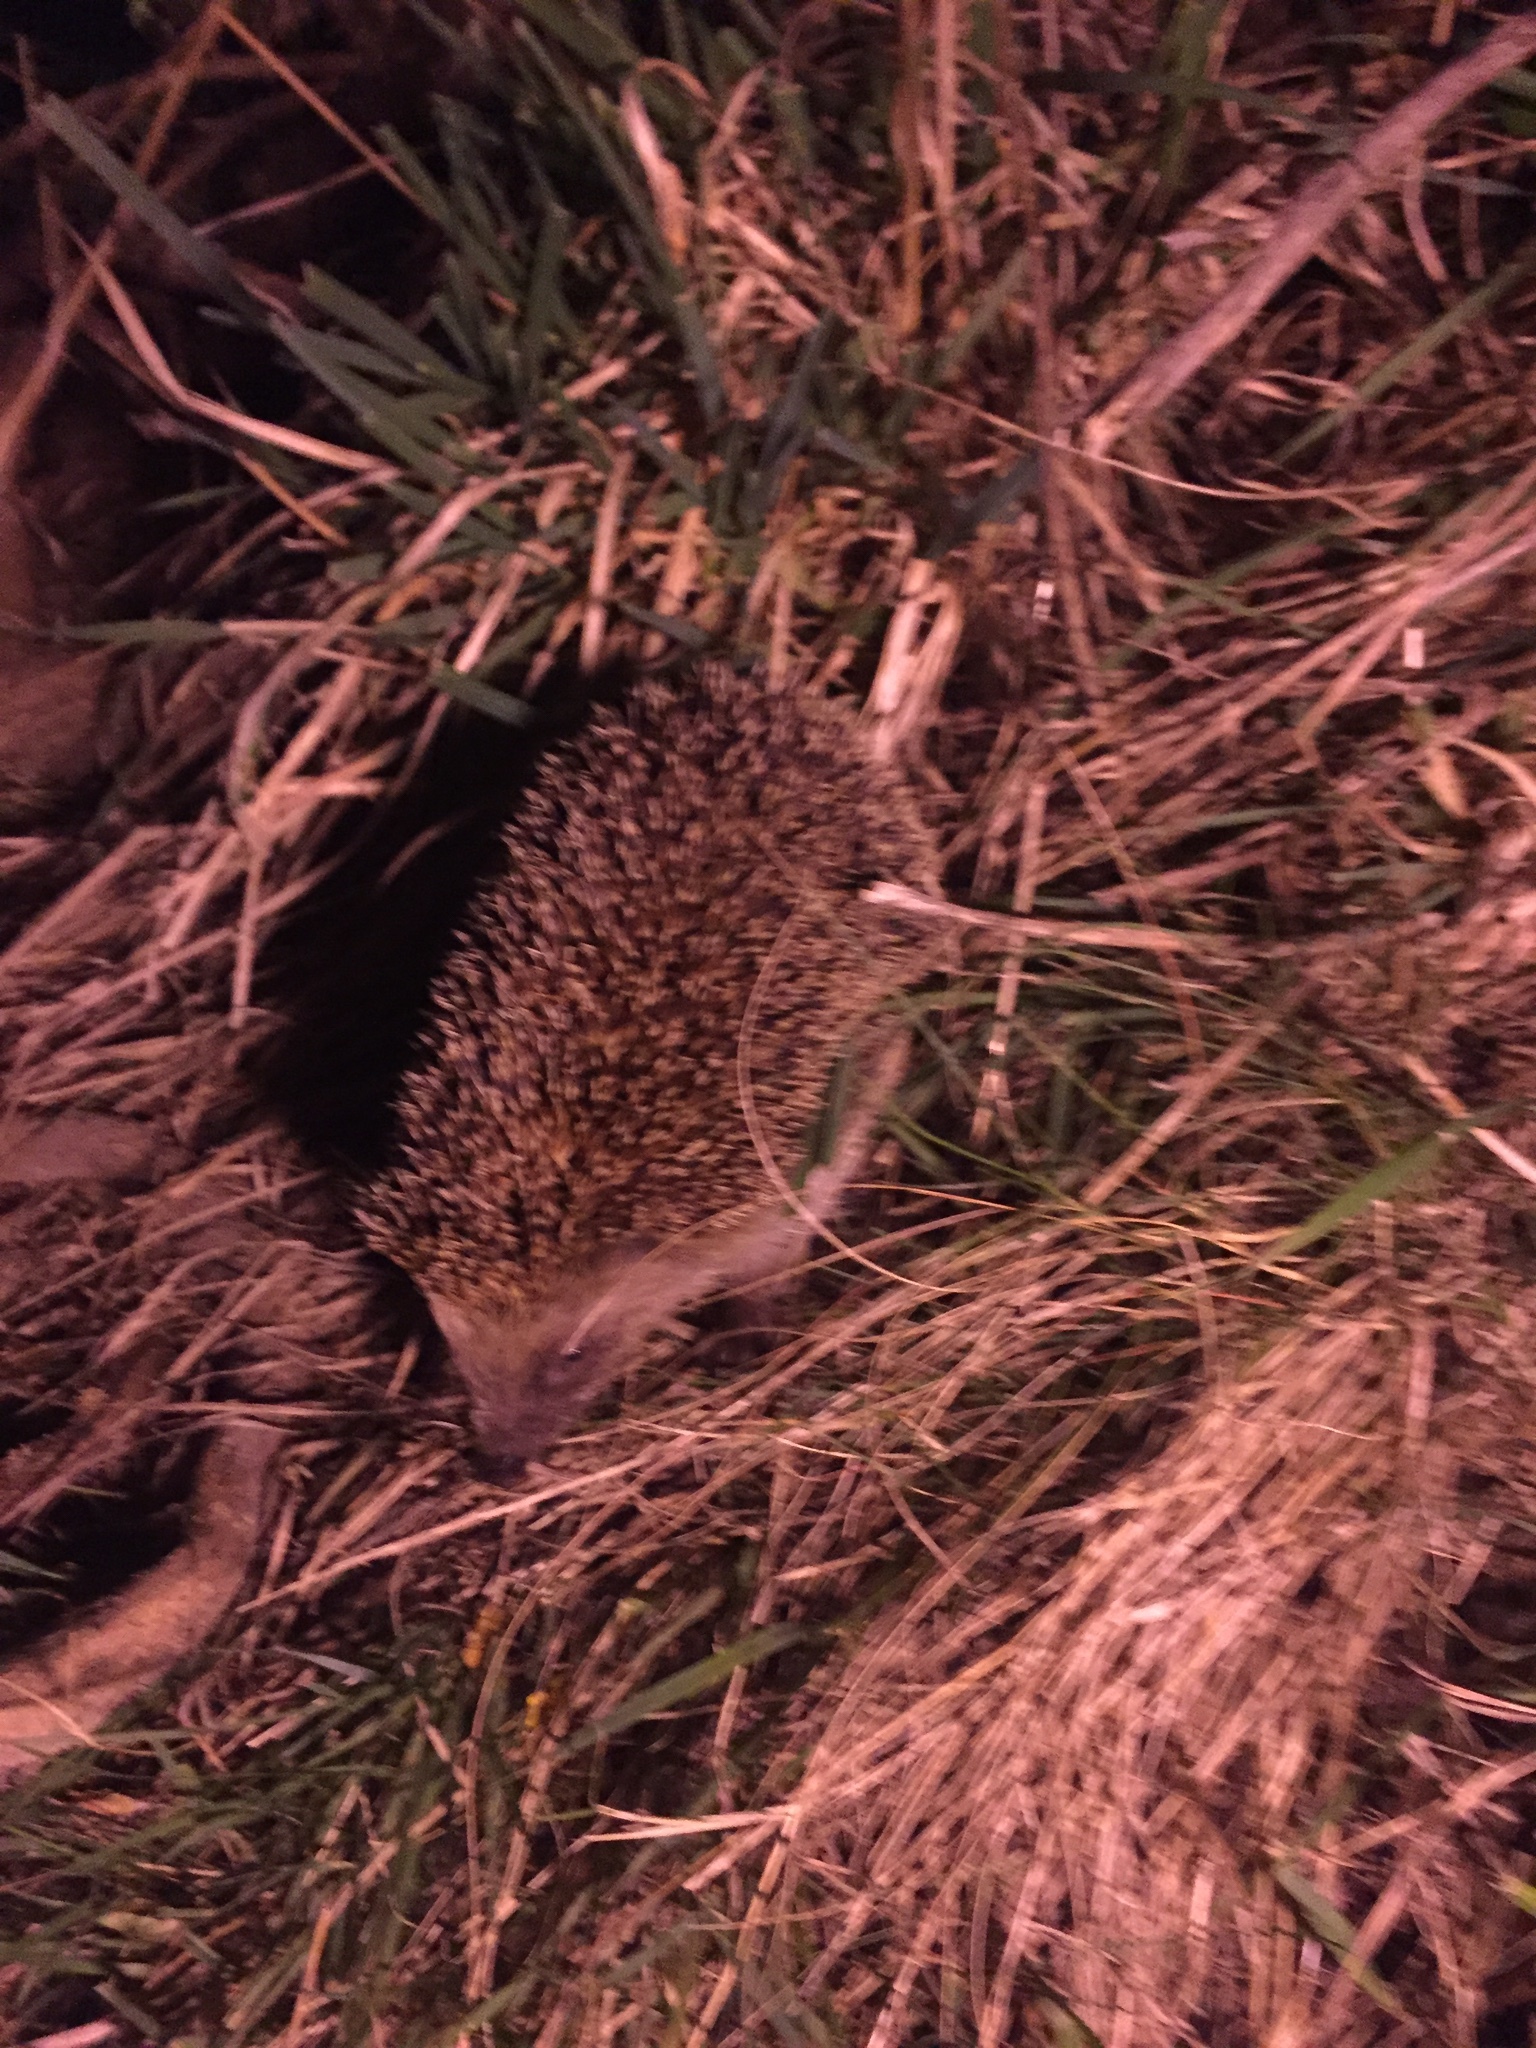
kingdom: Animalia
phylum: Chordata
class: Mammalia
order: Erinaceomorpha
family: Erinaceidae
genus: Erinaceus
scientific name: Erinaceus europaeus
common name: West european hedgehog
